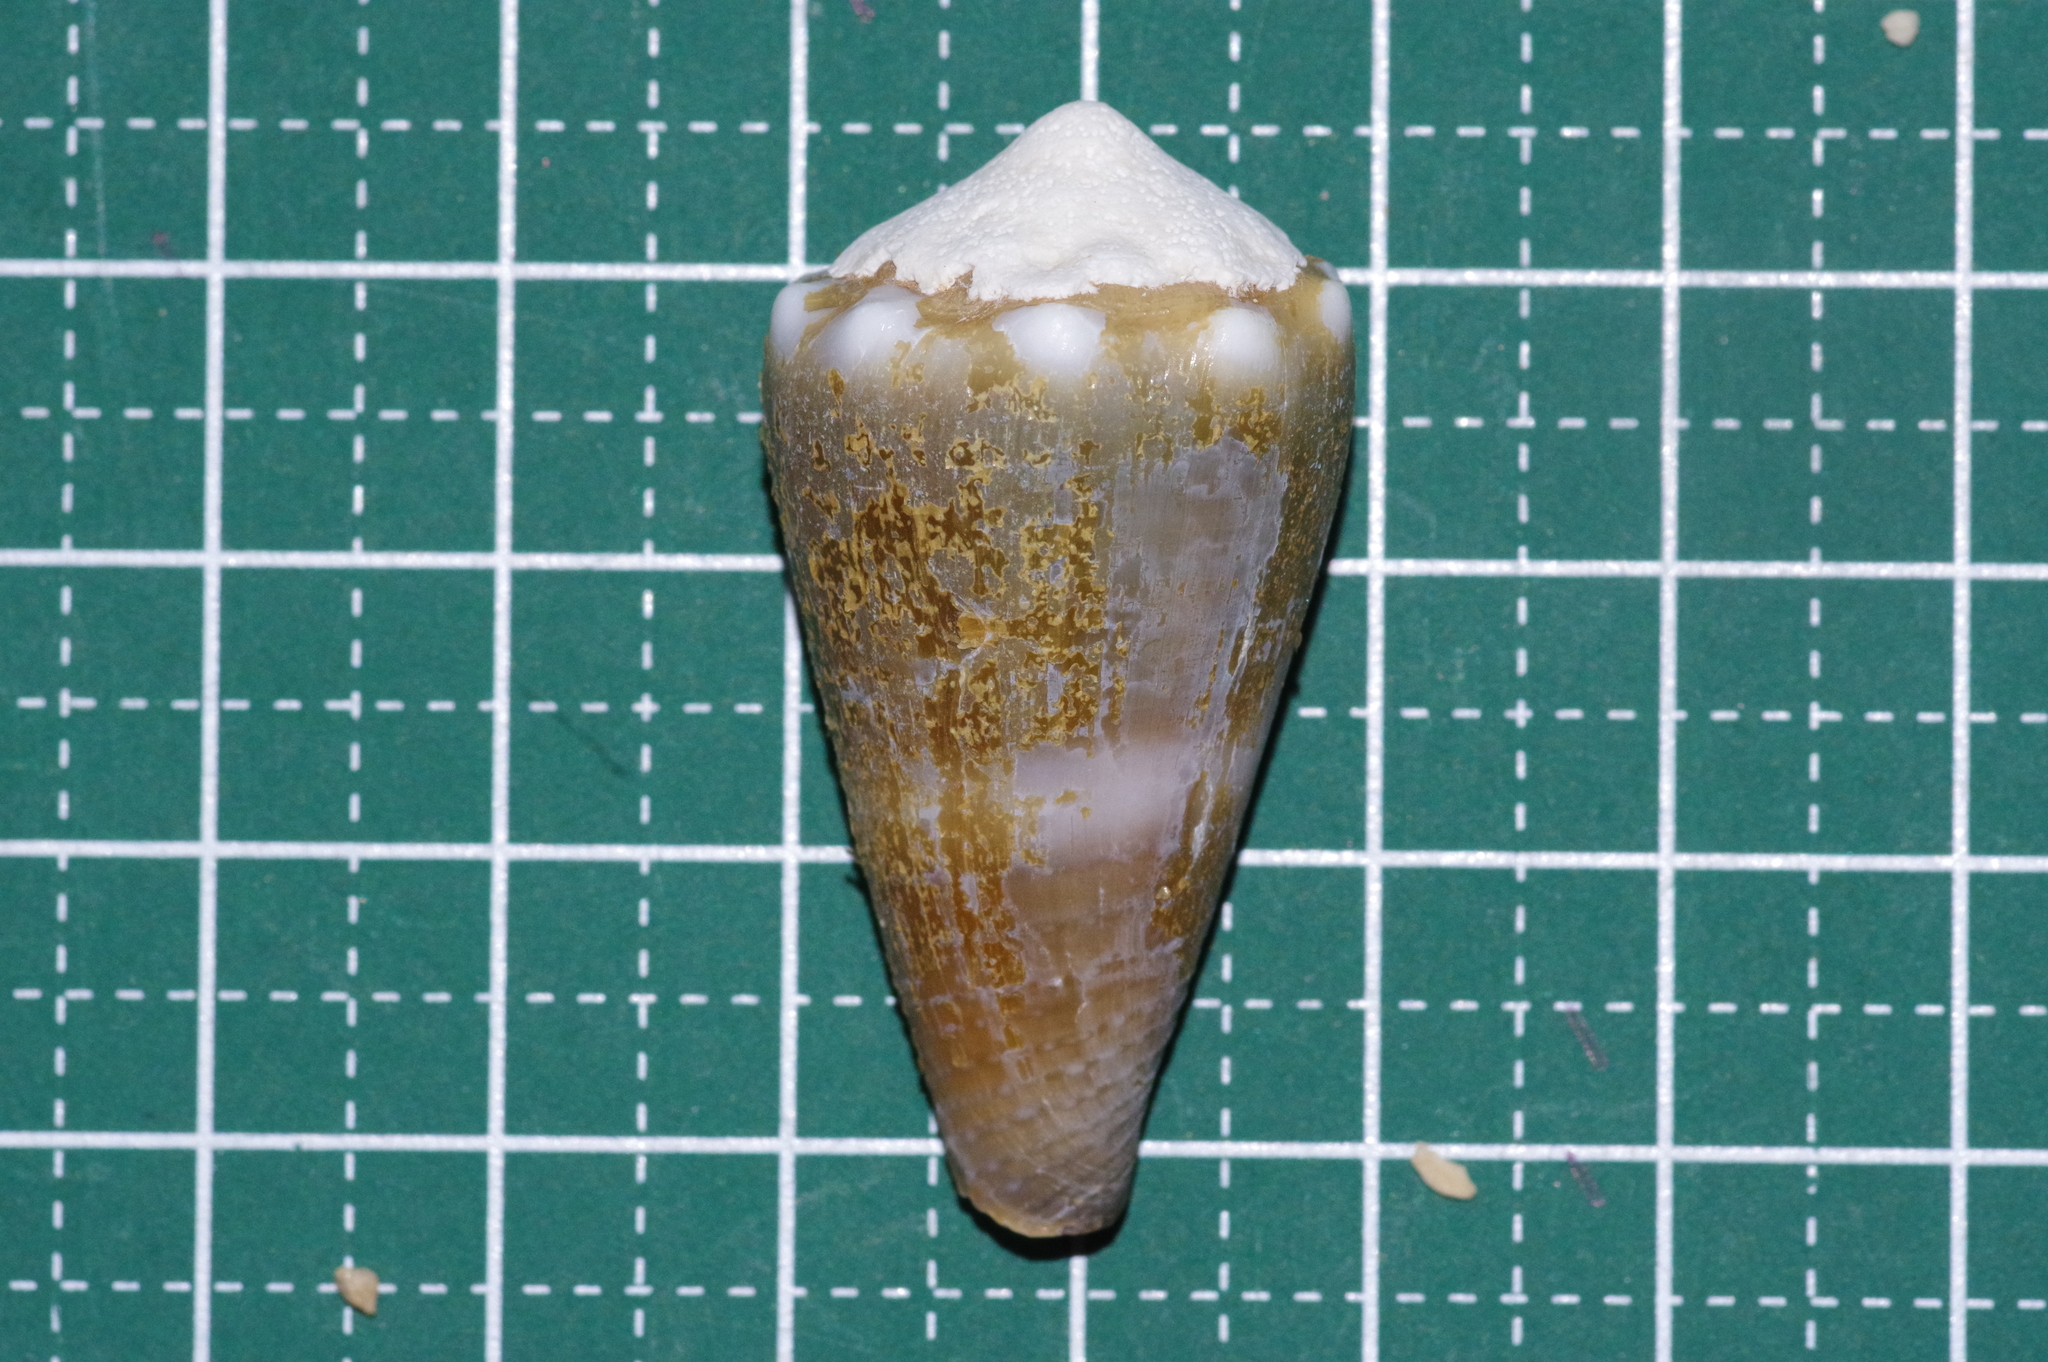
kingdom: Animalia
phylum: Mollusca
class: Gastropoda
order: Neogastropoda
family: Conidae
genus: Conus
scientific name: Conus lividus
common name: Livid cone
